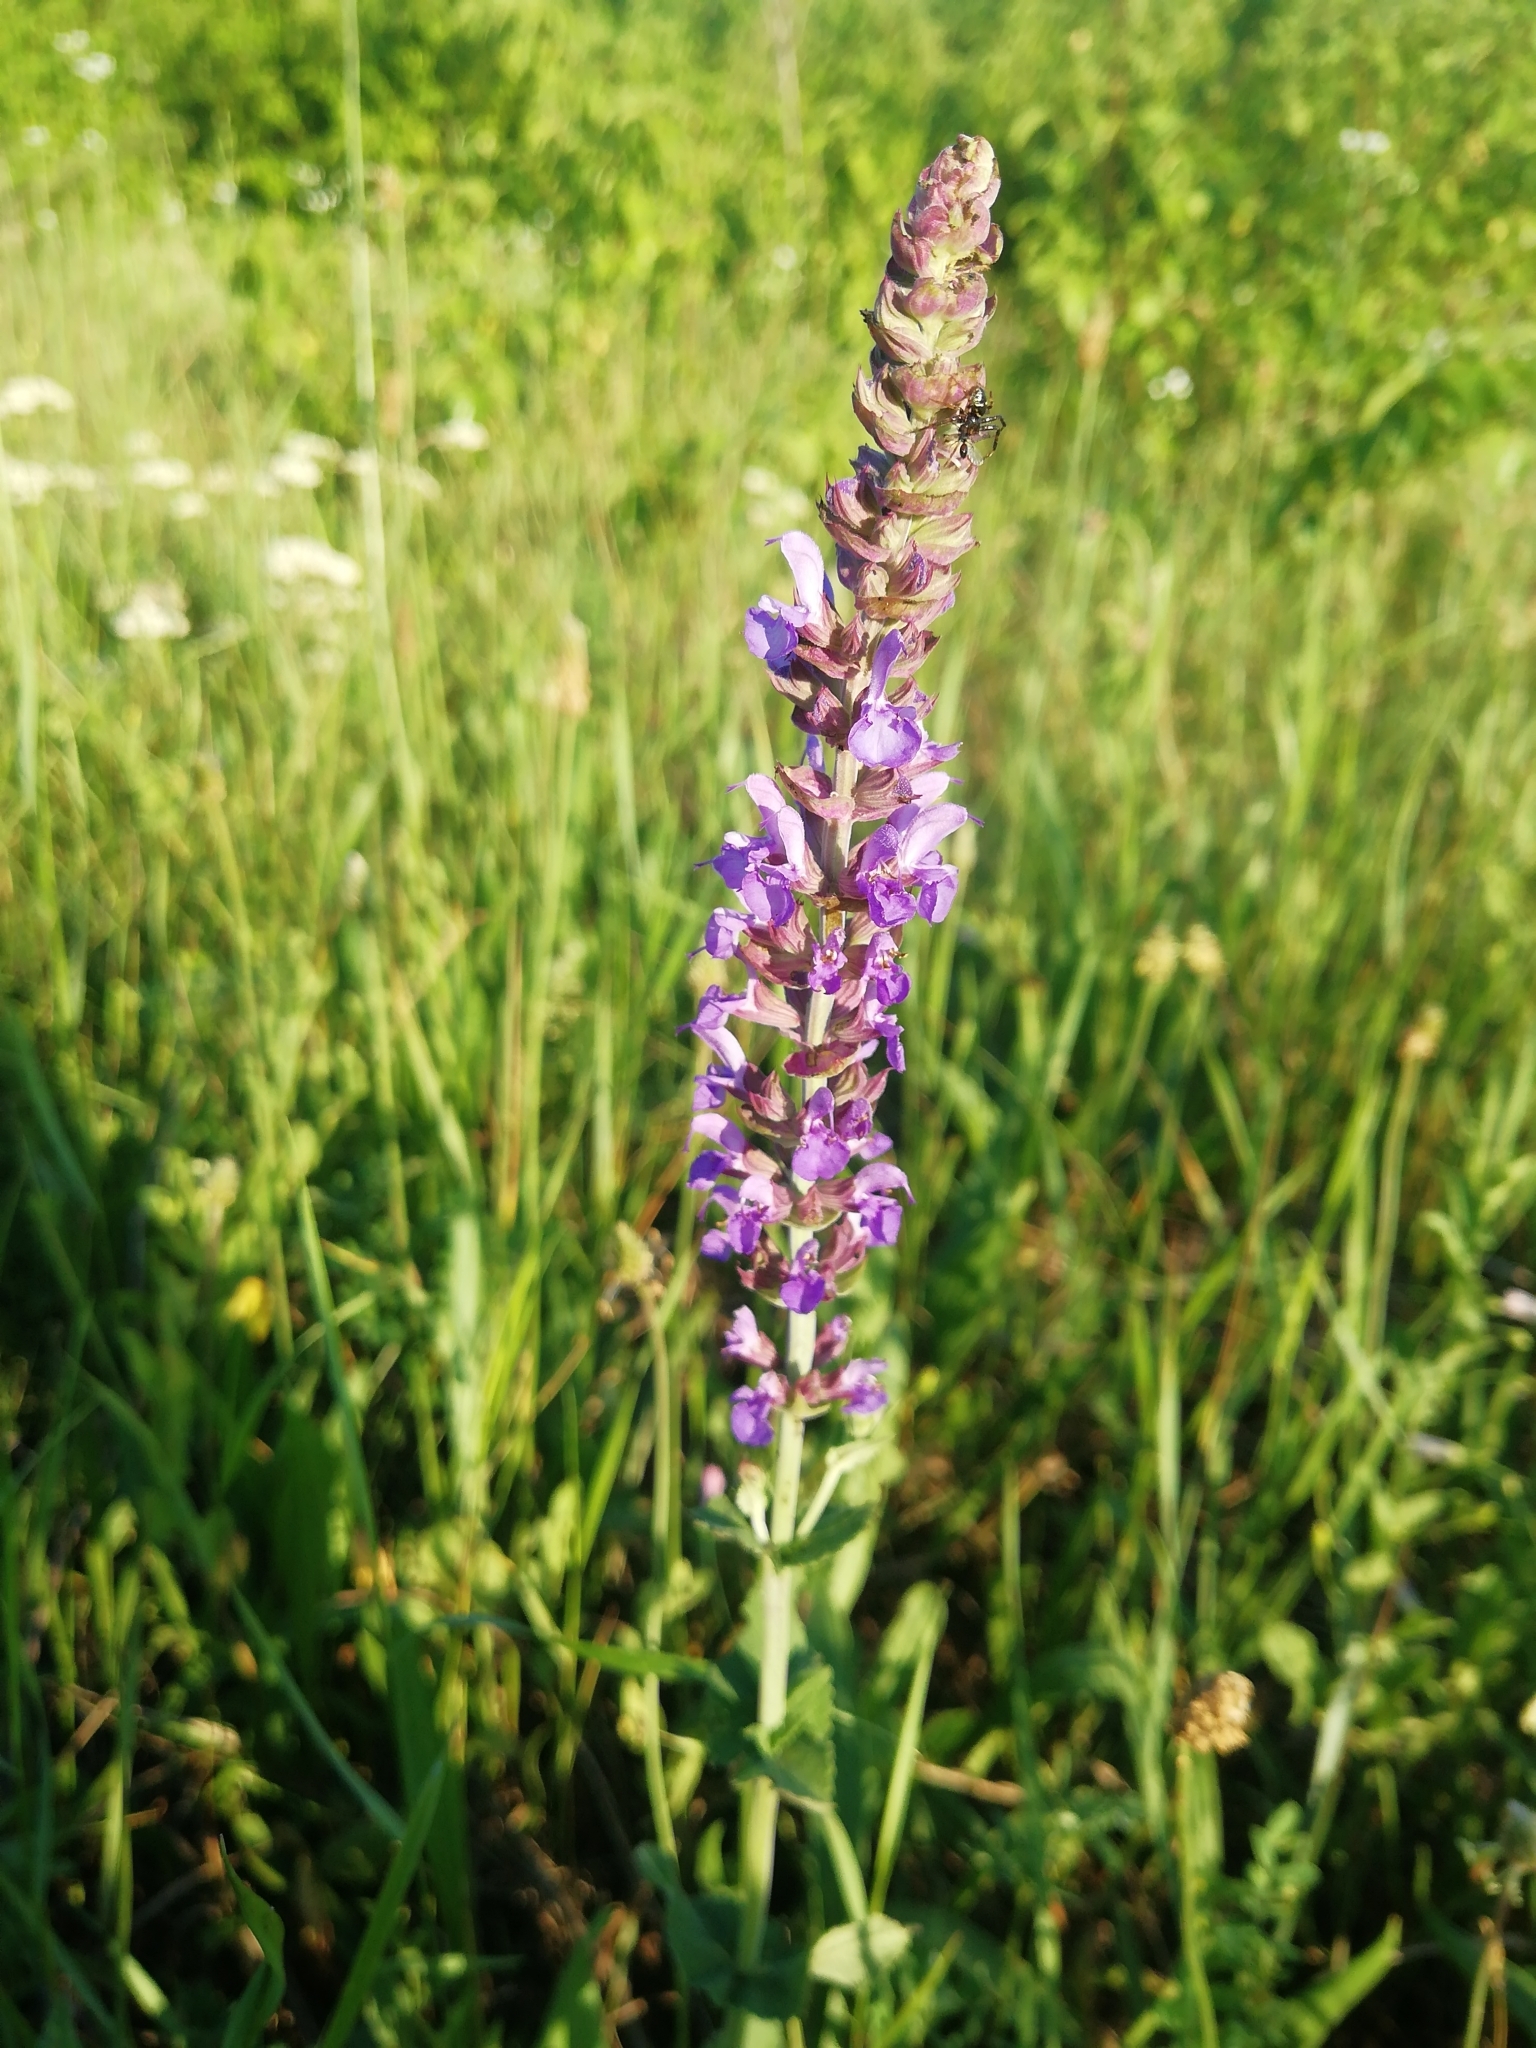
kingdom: Plantae
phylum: Tracheophyta
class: Magnoliopsida
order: Lamiales
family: Lamiaceae
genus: Salvia
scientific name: Salvia nemorosa
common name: Balkan clary
